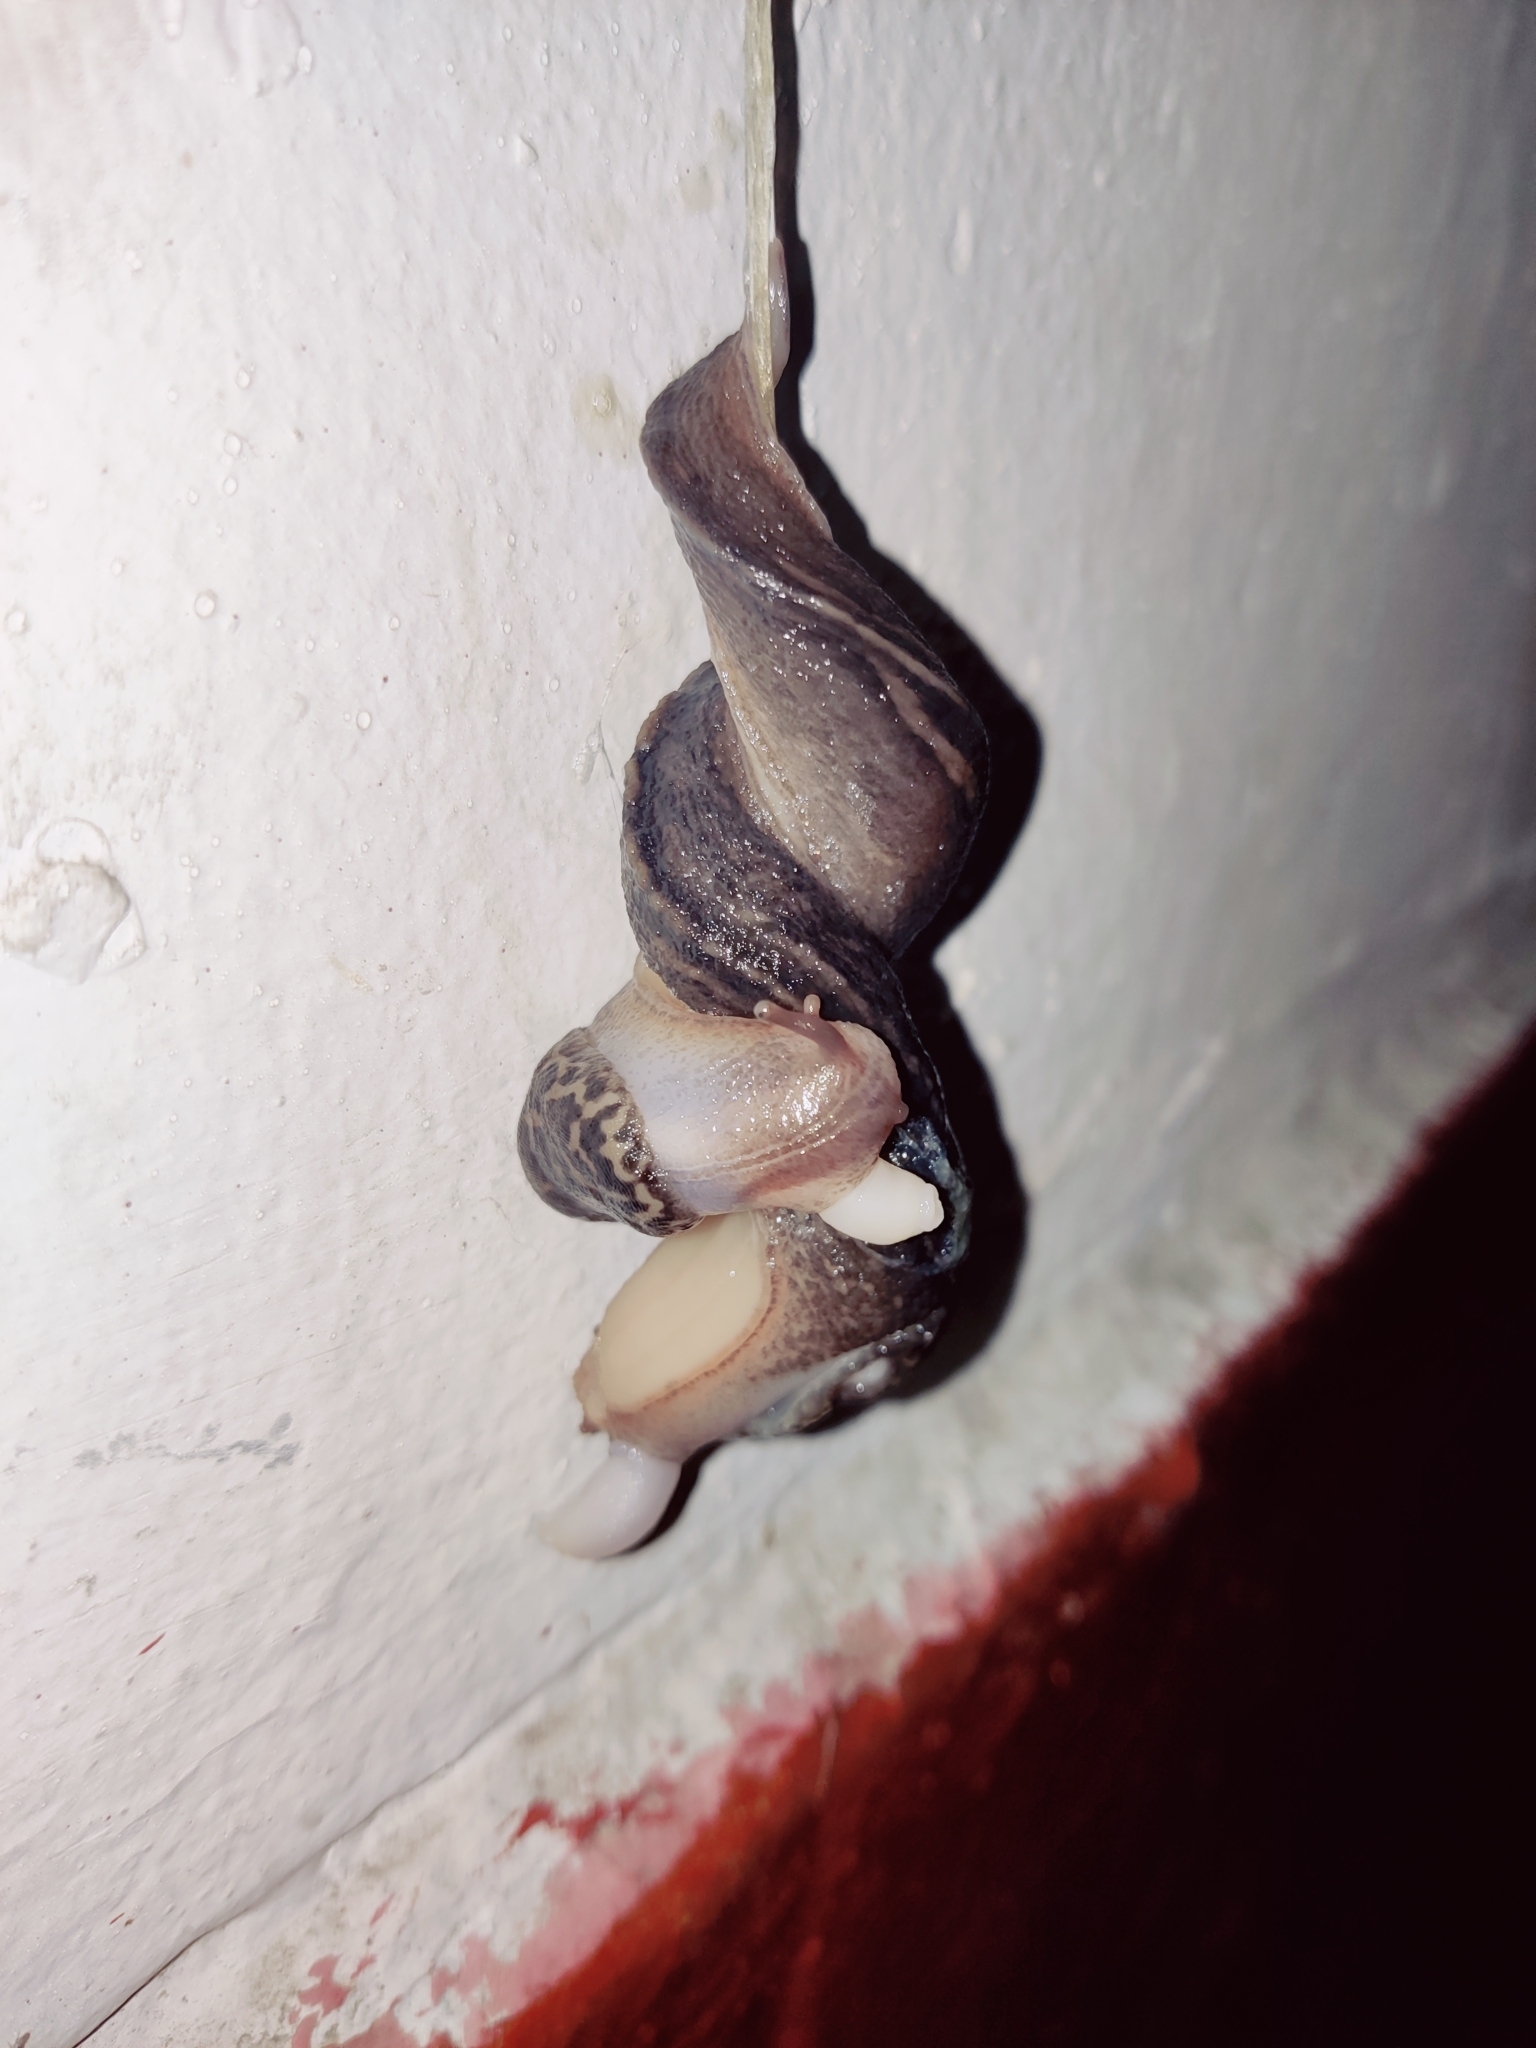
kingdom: Animalia
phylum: Mollusca
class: Gastropoda
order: Stylommatophora
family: Limacidae
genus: Limax
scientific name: Limax maximus
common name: Great grey slug
